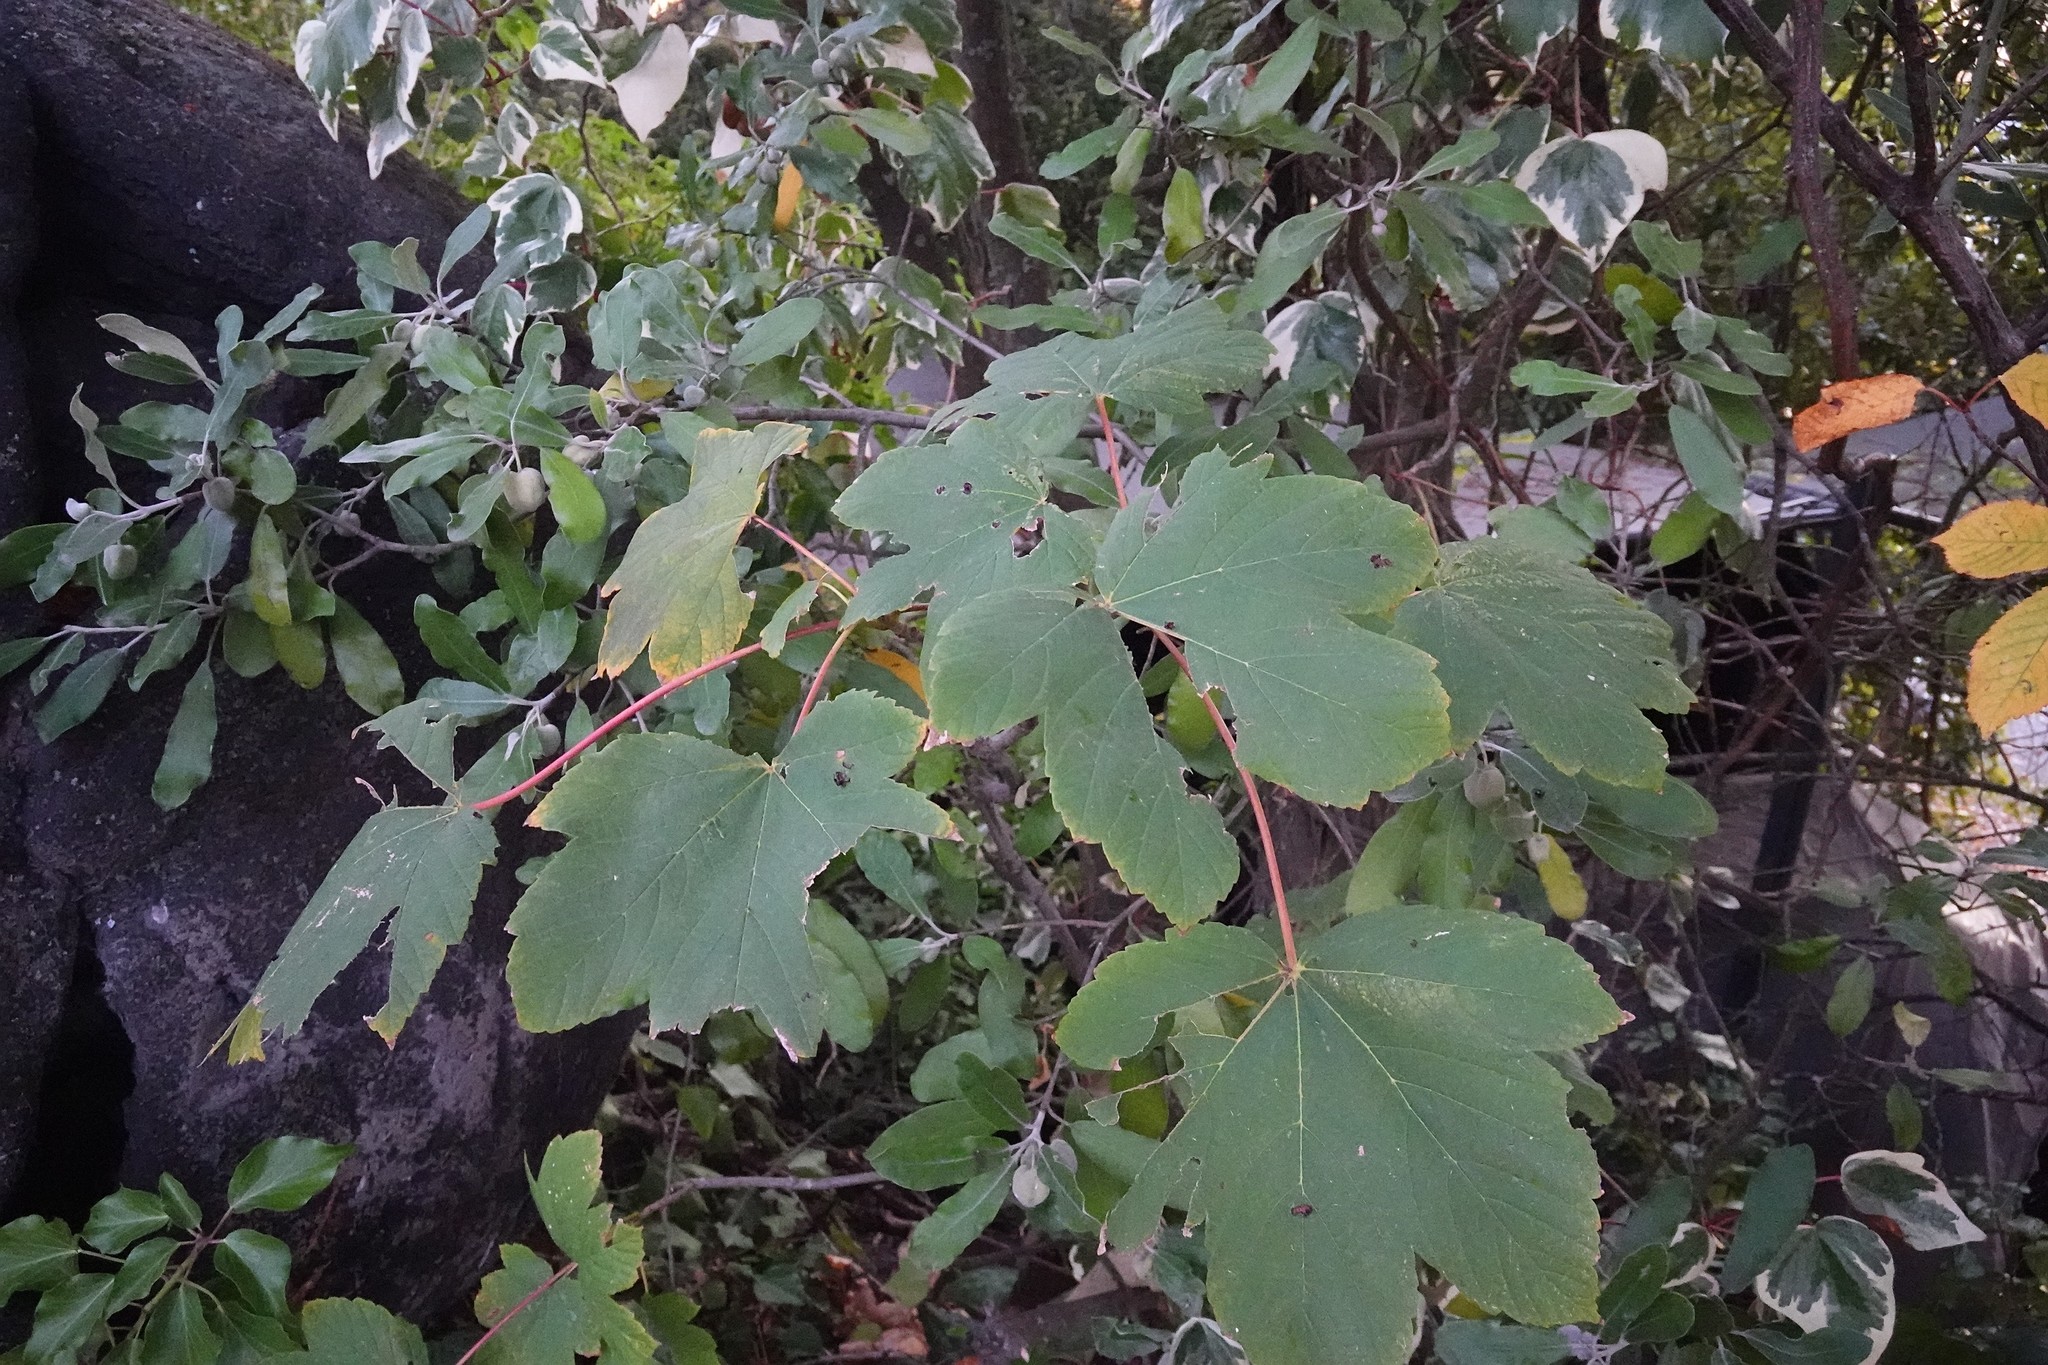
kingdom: Plantae
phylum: Tracheophyta
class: Magnoliopsida
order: Sapindales
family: Sapindaceae
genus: Acer
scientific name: Acer pseudoplatanus
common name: Sycamore
